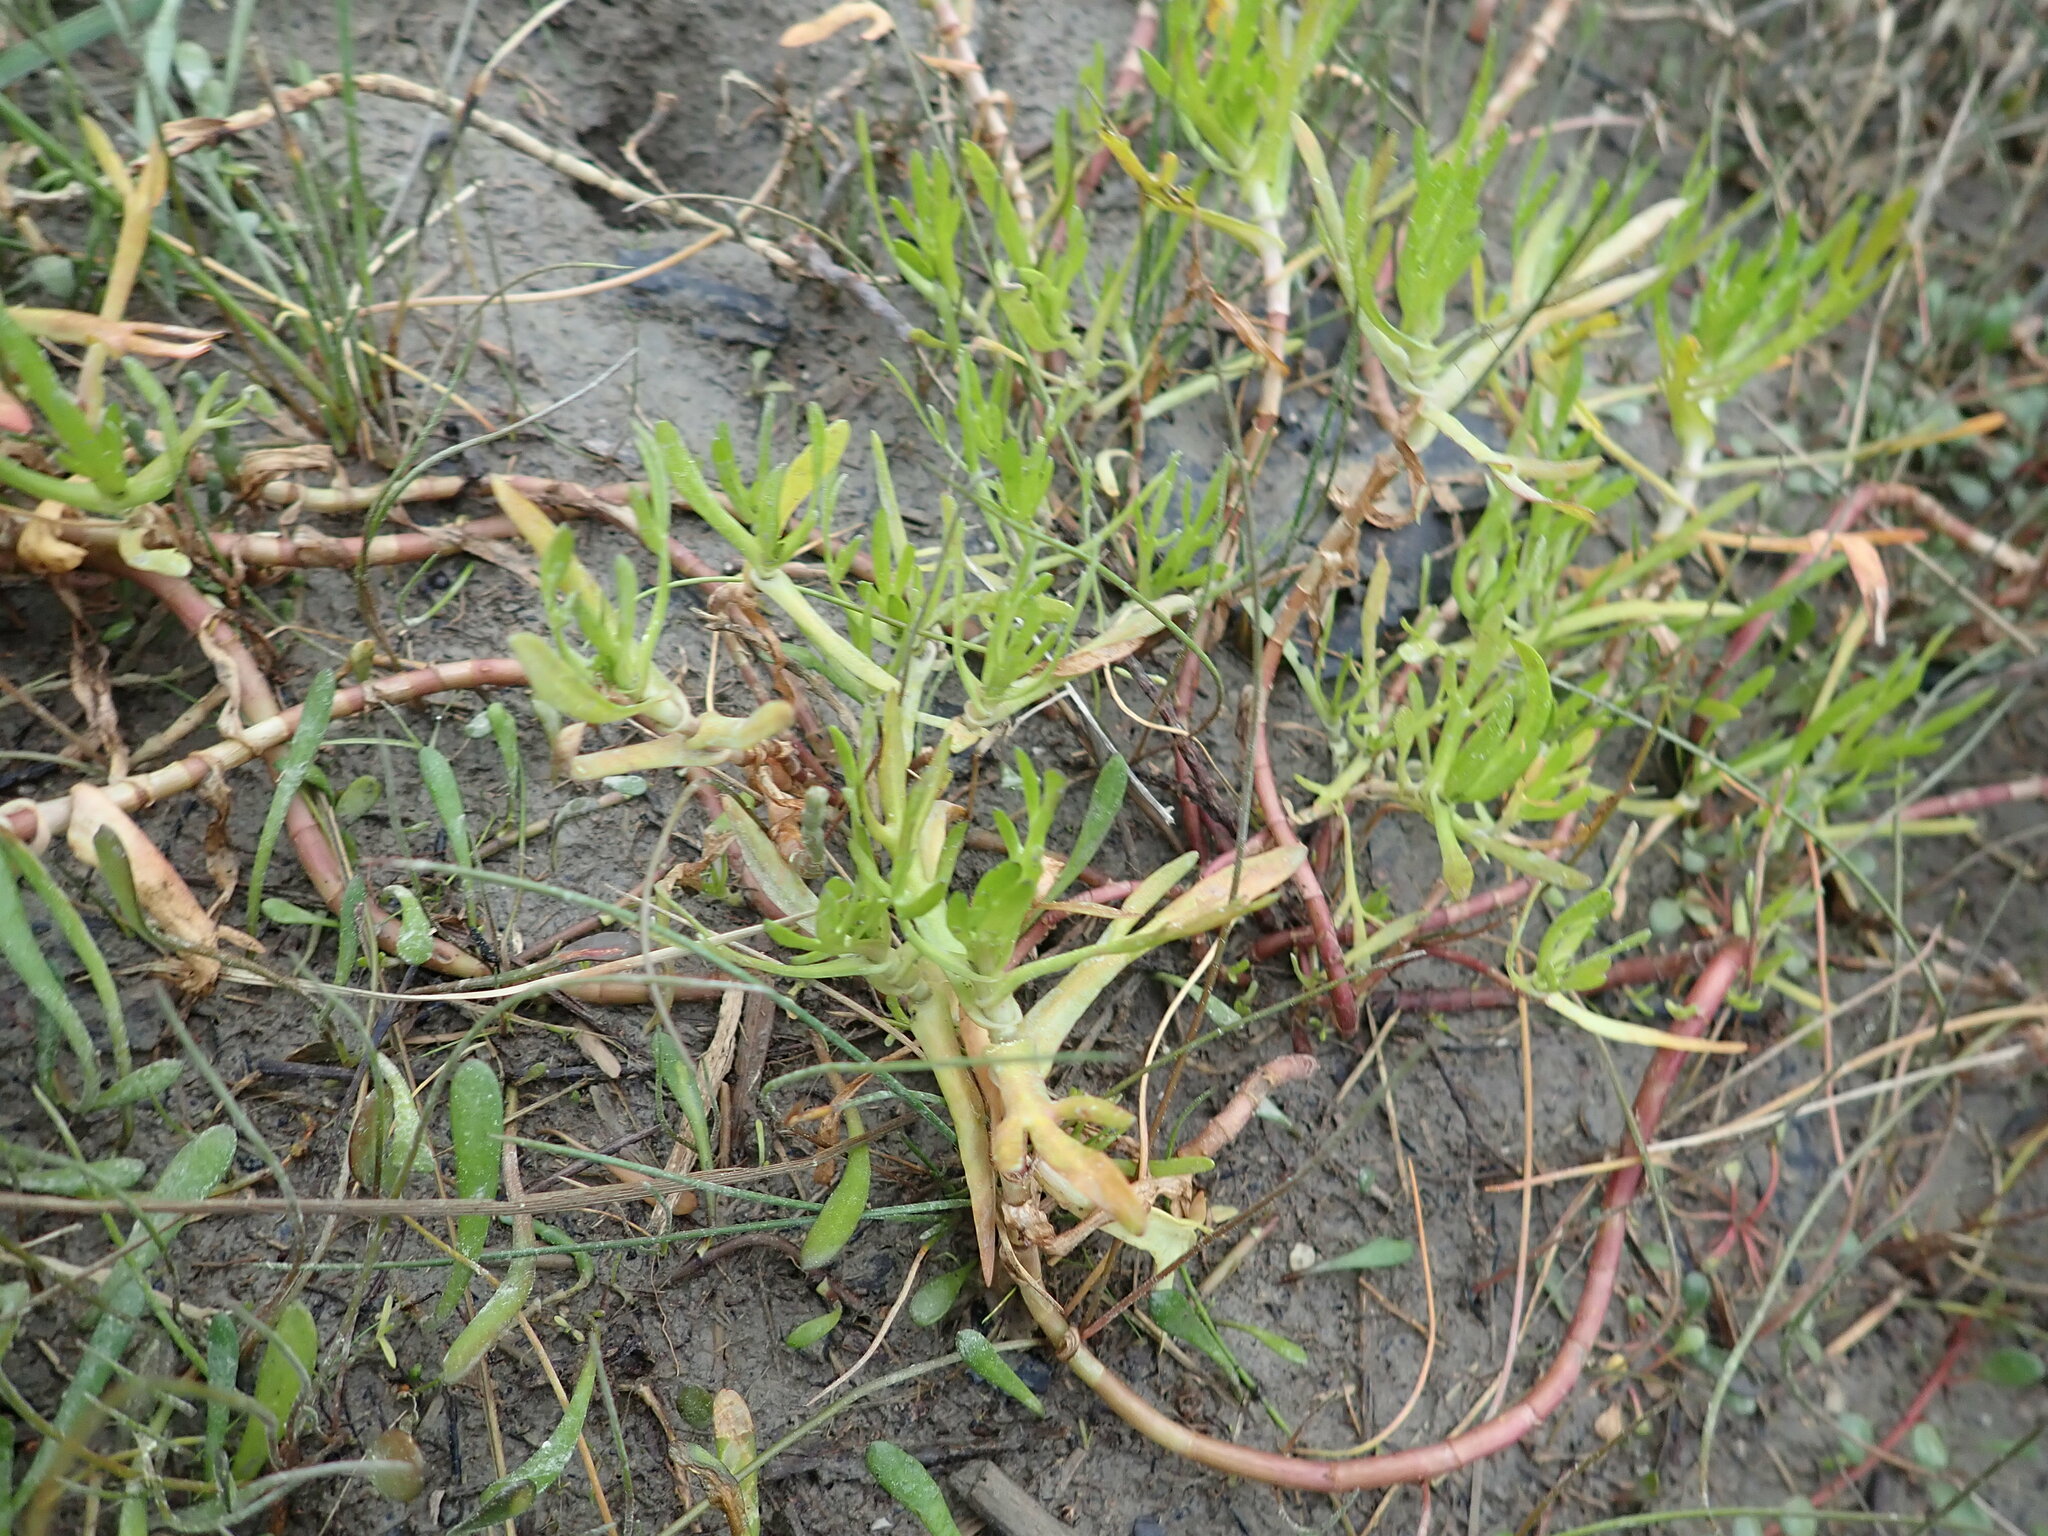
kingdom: Plantae
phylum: Tracheophyta
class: Magnoliopsida
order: Asterales
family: Asteraceae
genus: Cotula
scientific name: Cotula coronopifolia
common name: Buttonweed
